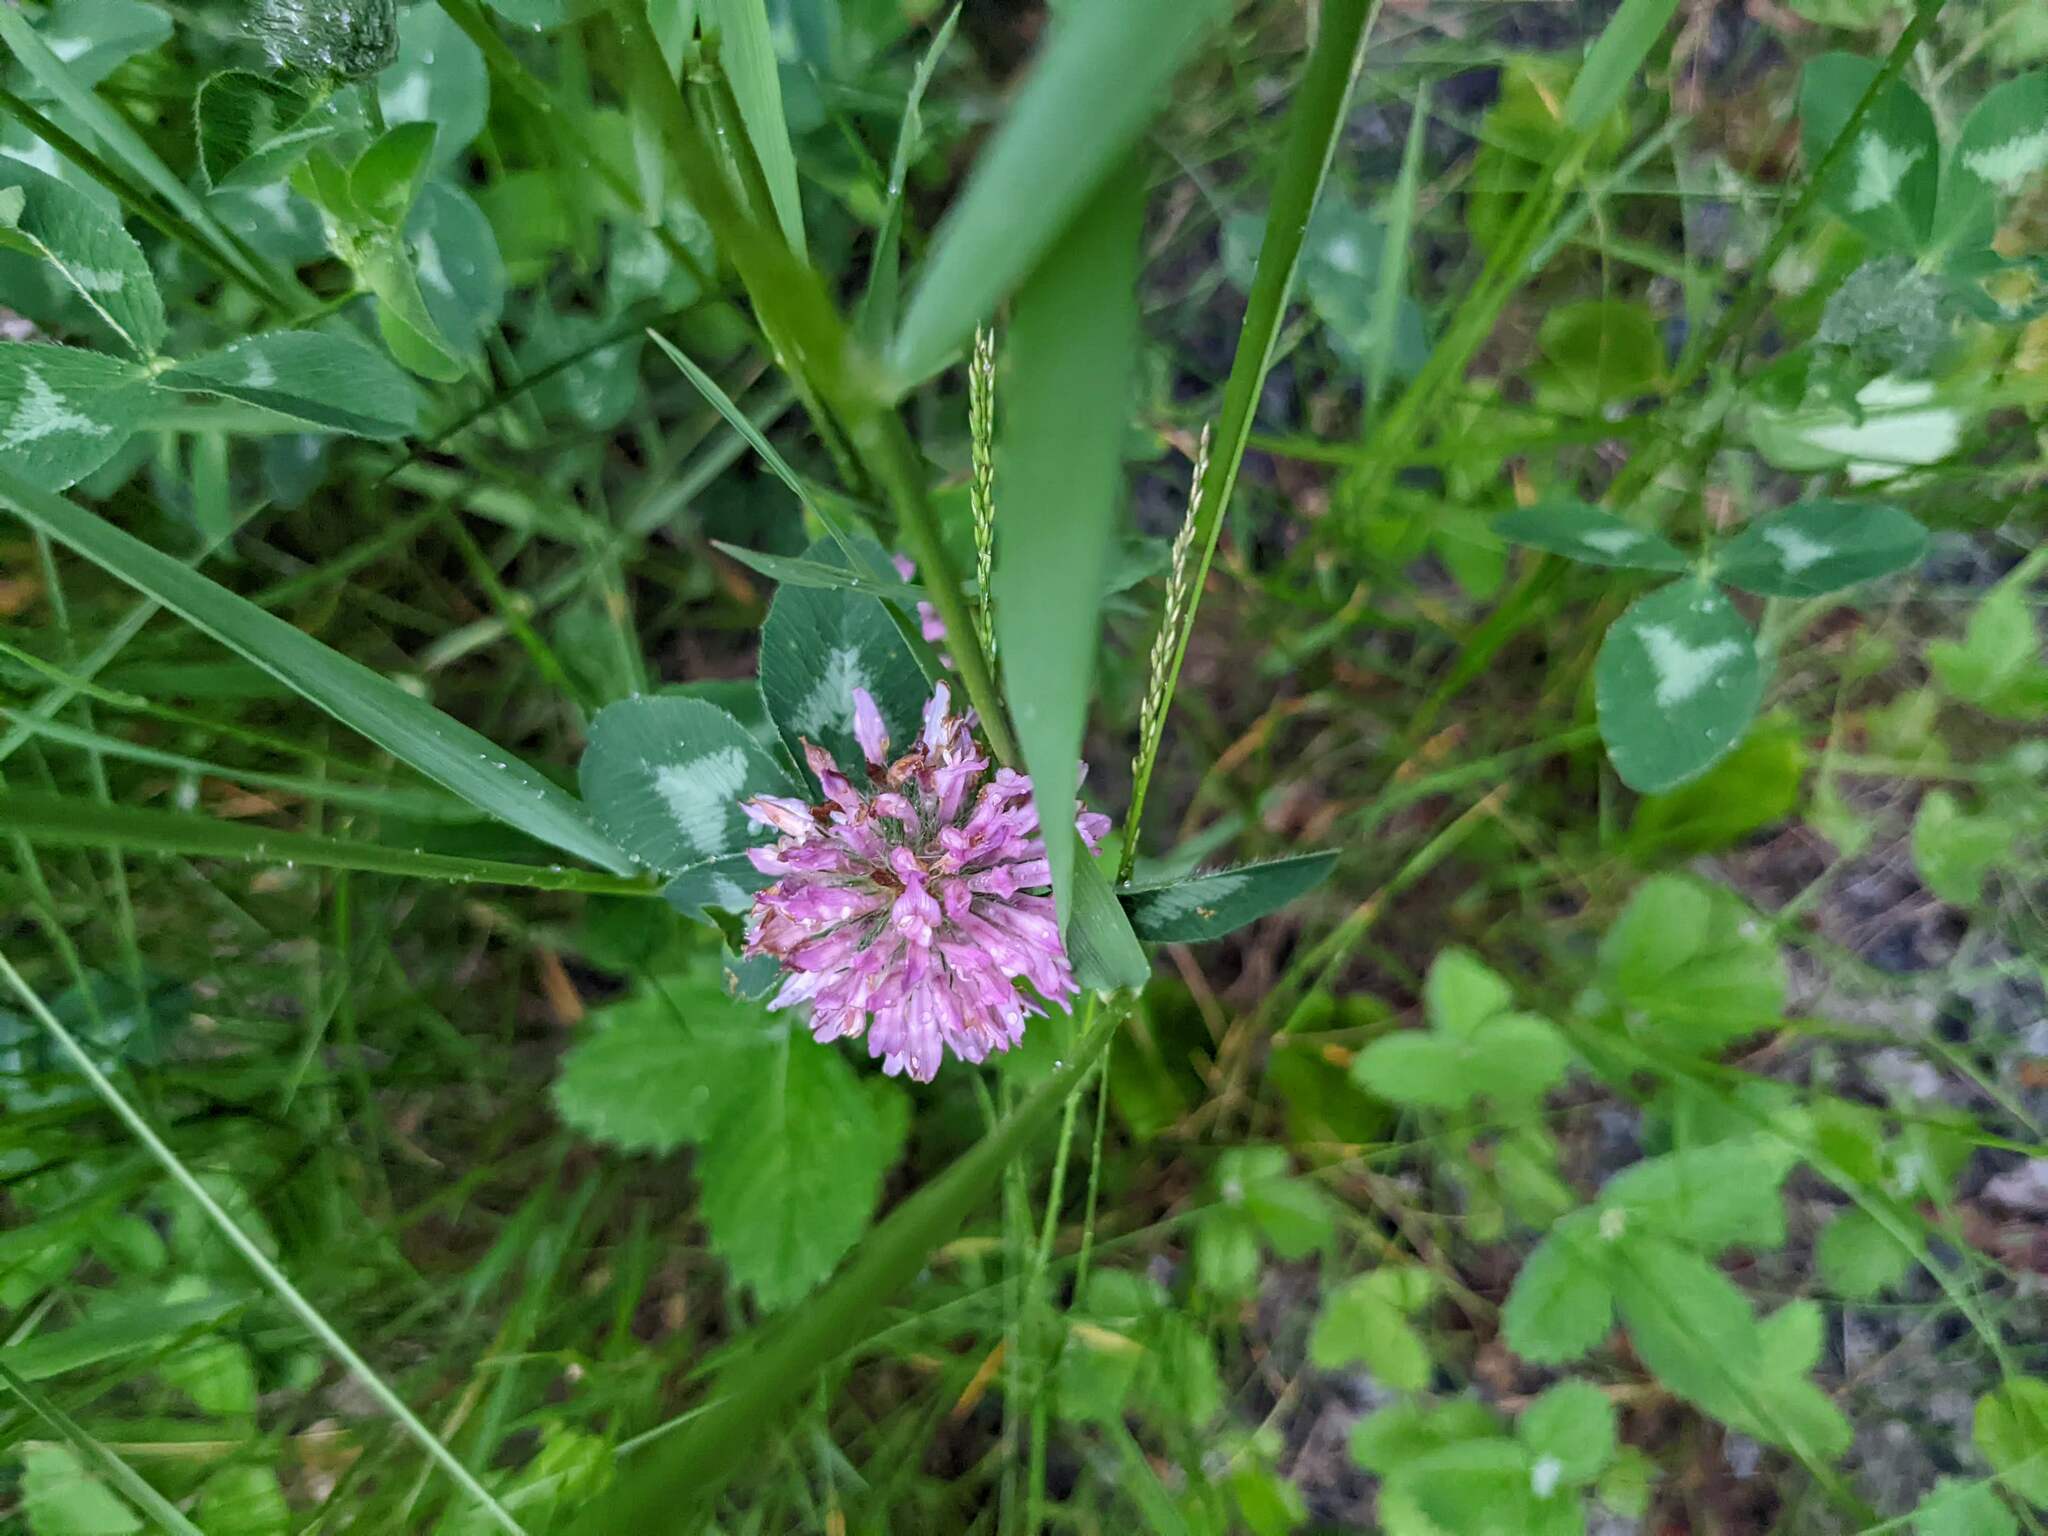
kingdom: Plantae
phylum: Tracheophyta
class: Magnoliopsida
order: Fabales
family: Fabaceae
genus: Trifolium
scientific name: Trifolium pratense
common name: Red clover
